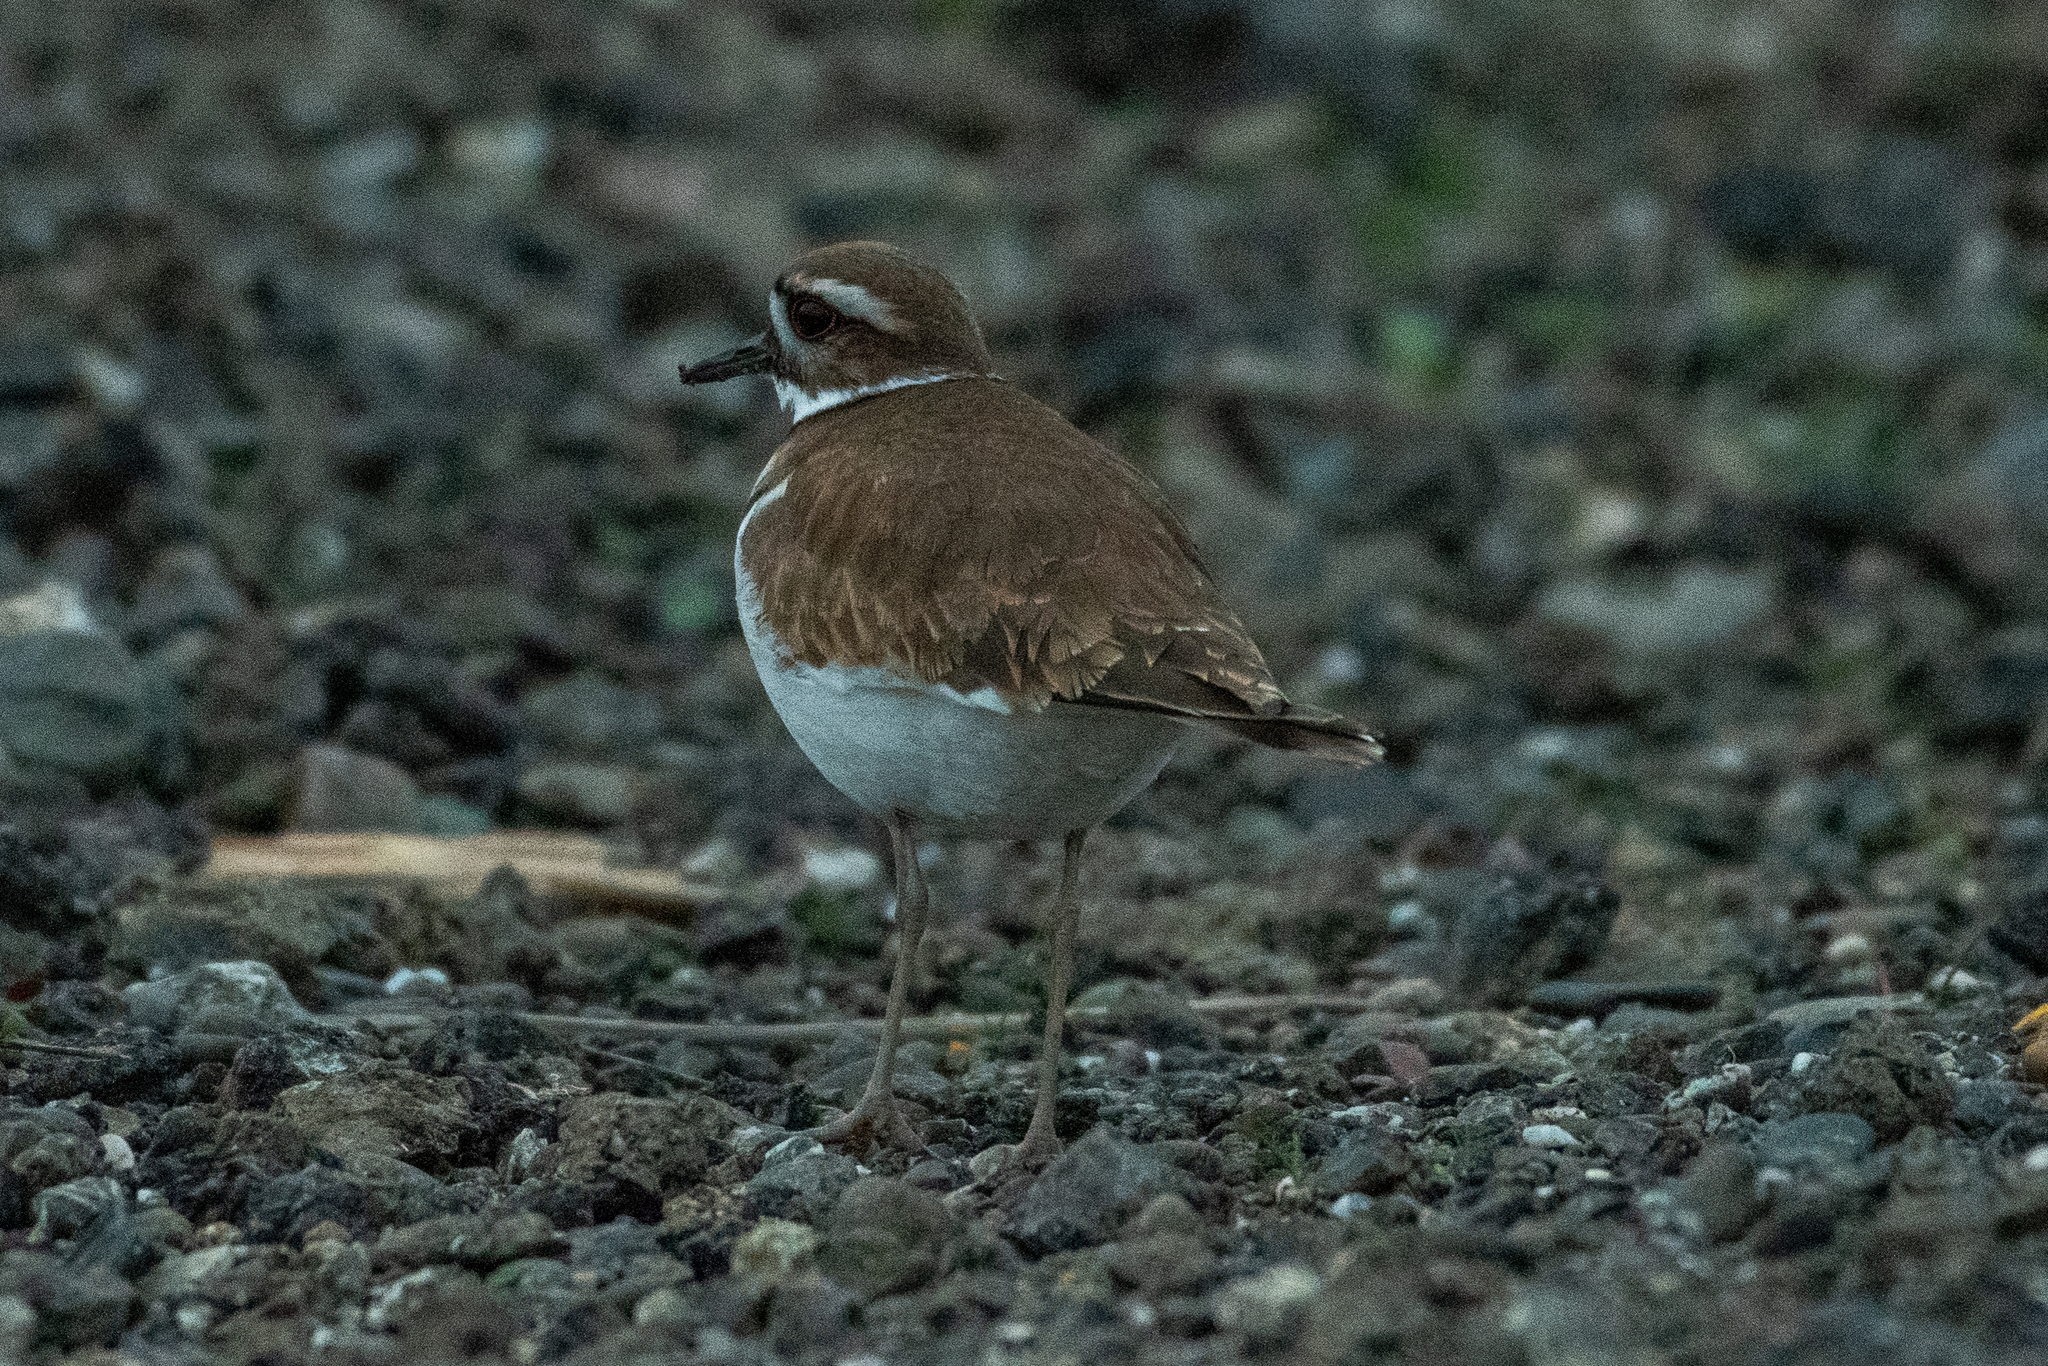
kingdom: Animalia
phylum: Chordata
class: Aves
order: Charadriiformes
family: Charadriidae
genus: Charadrius
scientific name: Charadrius vociferus
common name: Killdeer
